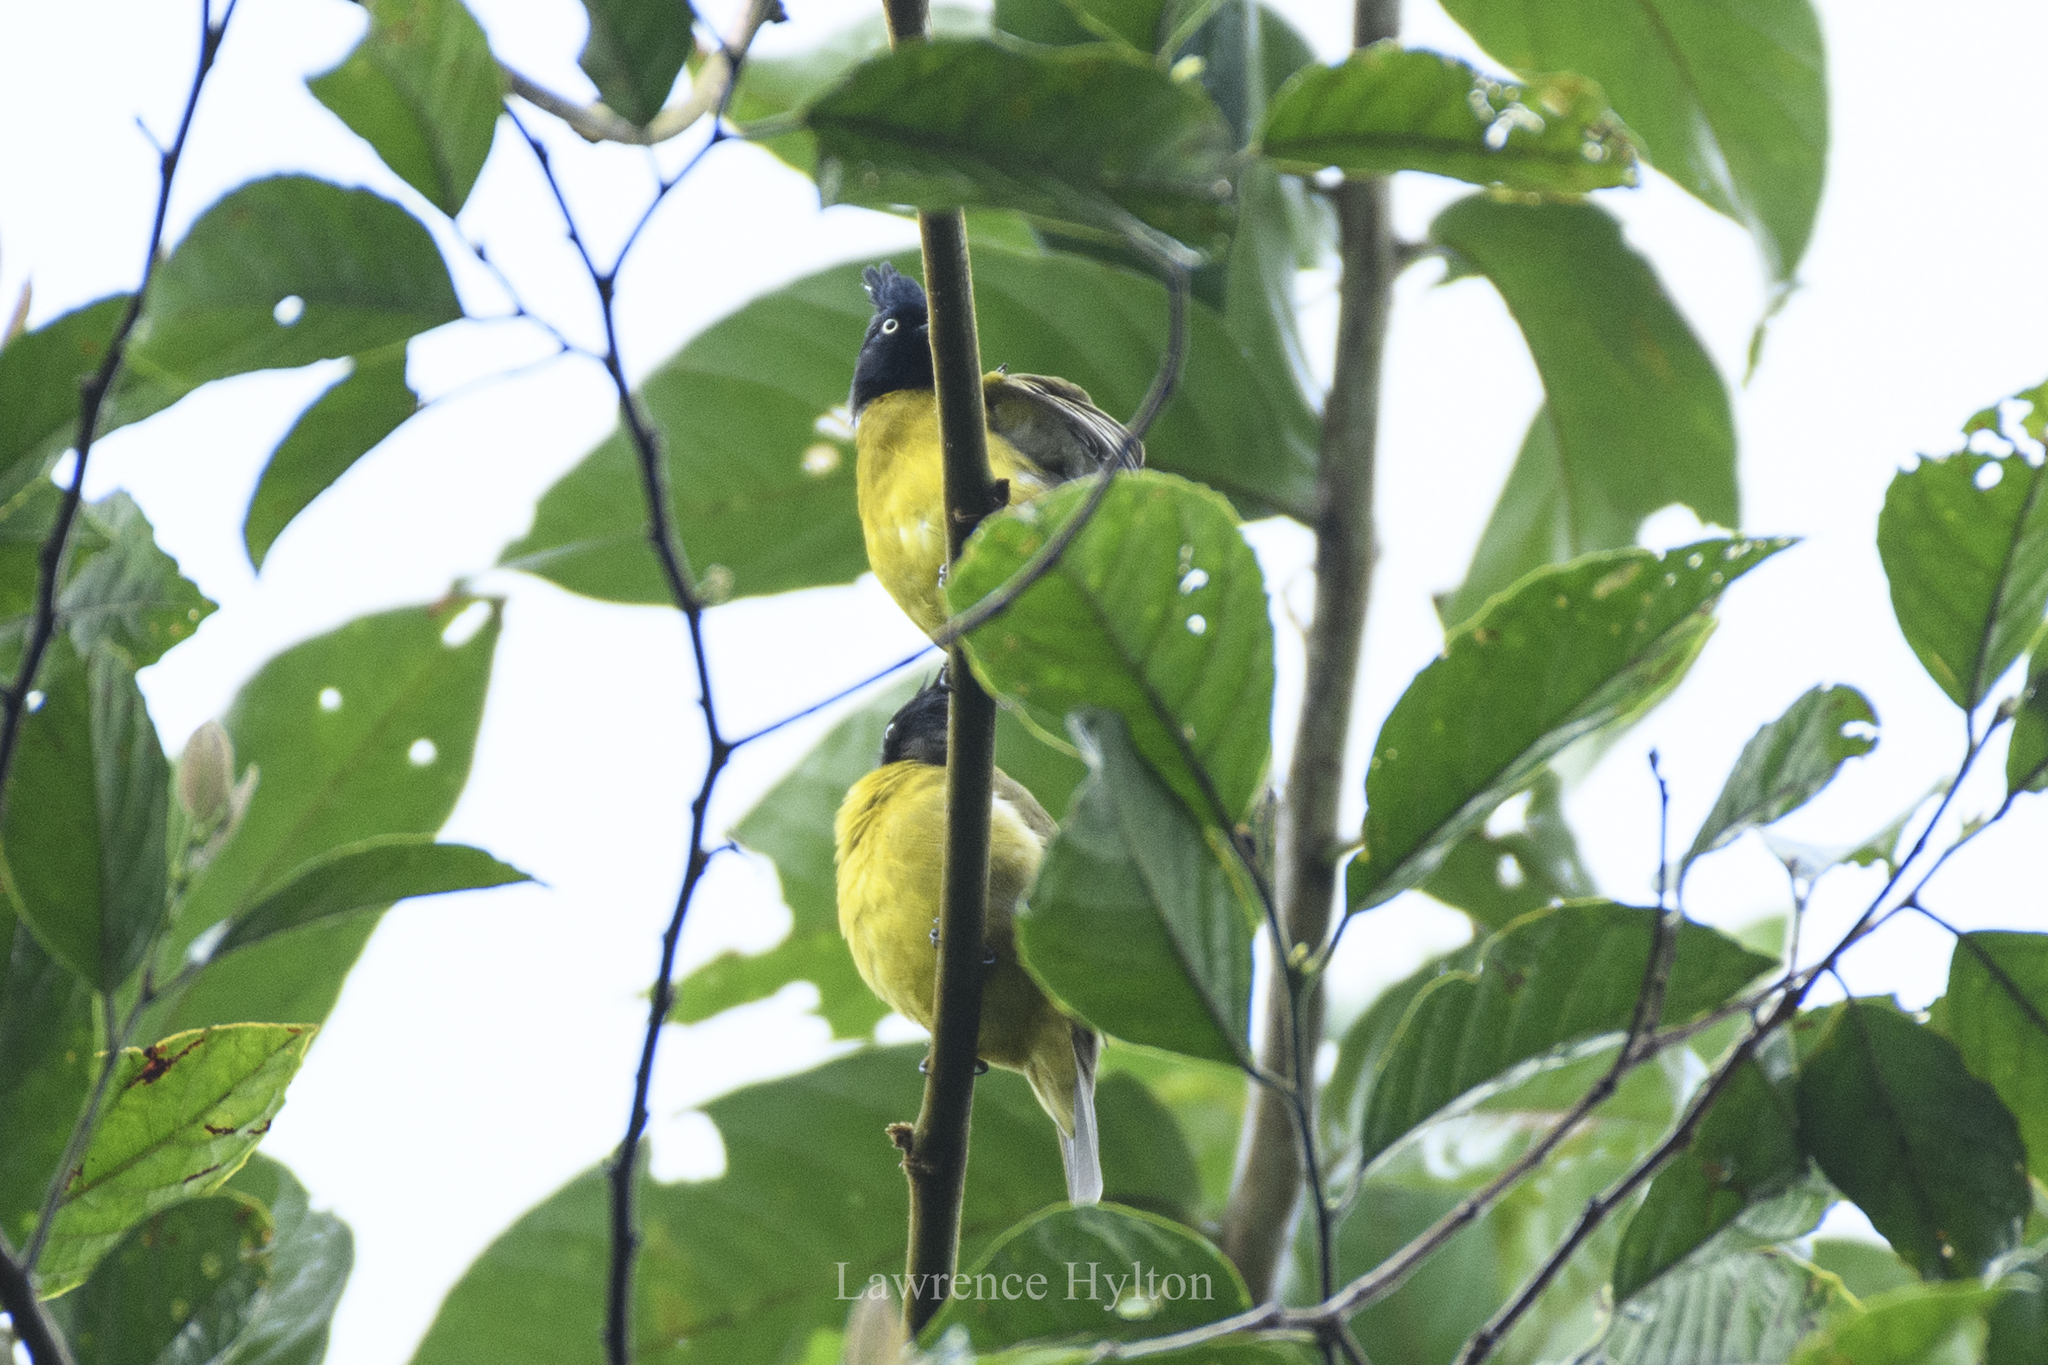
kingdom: Animalia
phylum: Chordata
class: Aves
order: Passeriformes
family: Pycnonotidae
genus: Pycnonotus
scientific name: Pycnonotus flaviventris
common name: Black-crested bulbul
